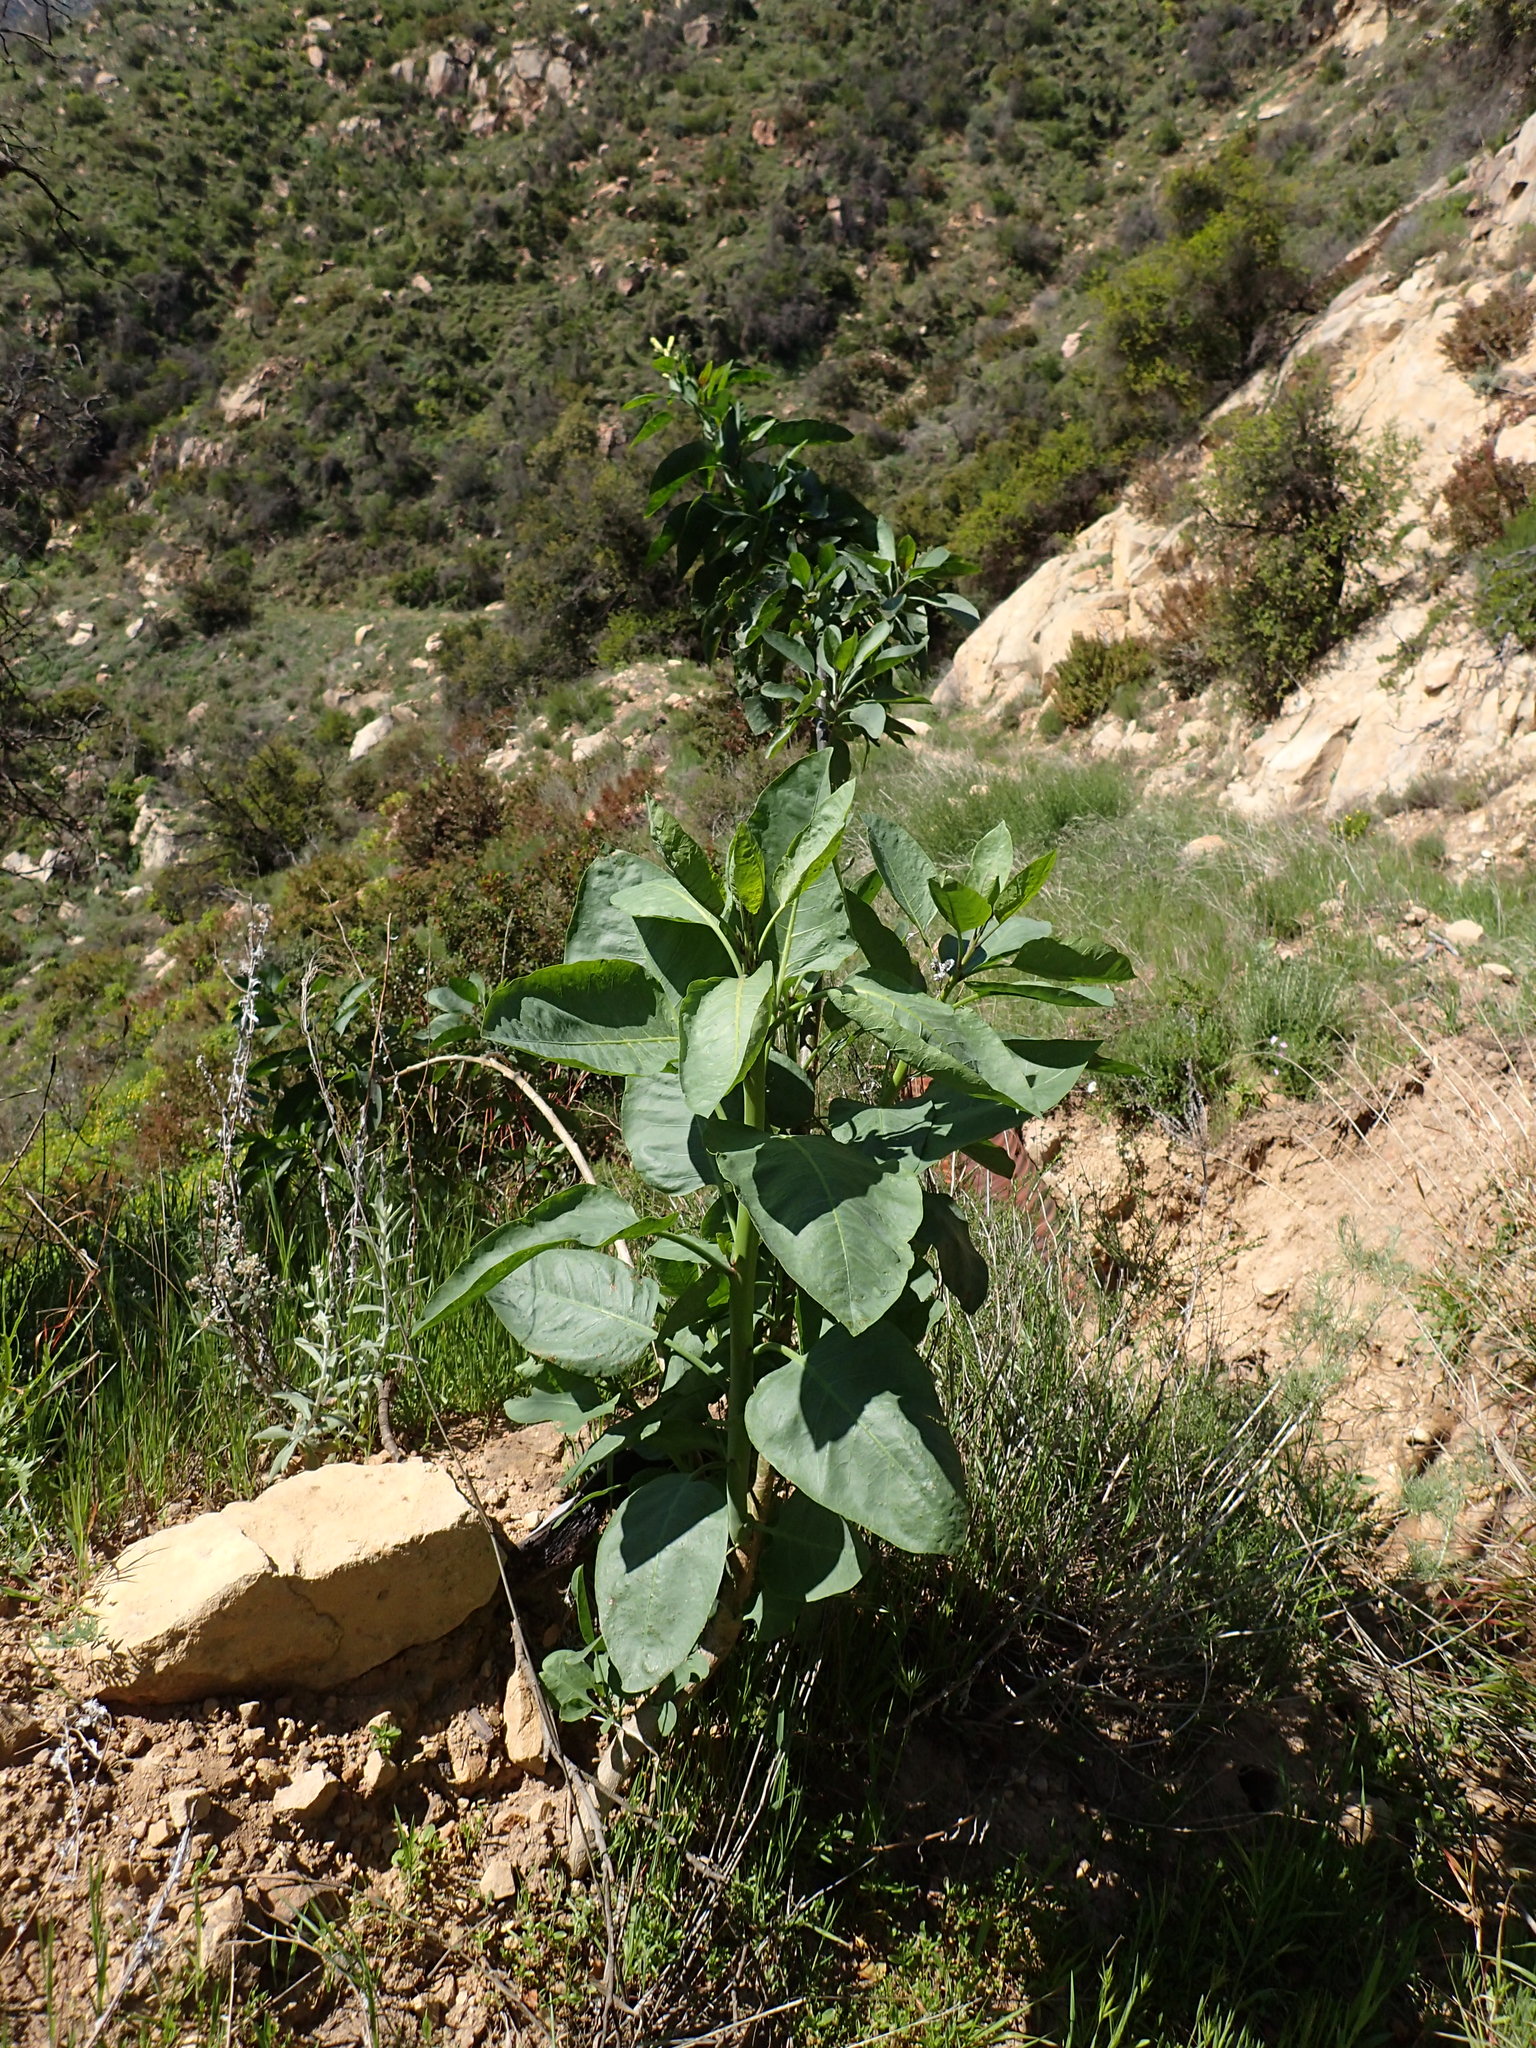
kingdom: Plantae
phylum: Tracheophyta
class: Magnoliopsida
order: Solanales
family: Solanaceae
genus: Nicotiana
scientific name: Nicotiana glauca
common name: Tree tobacco
